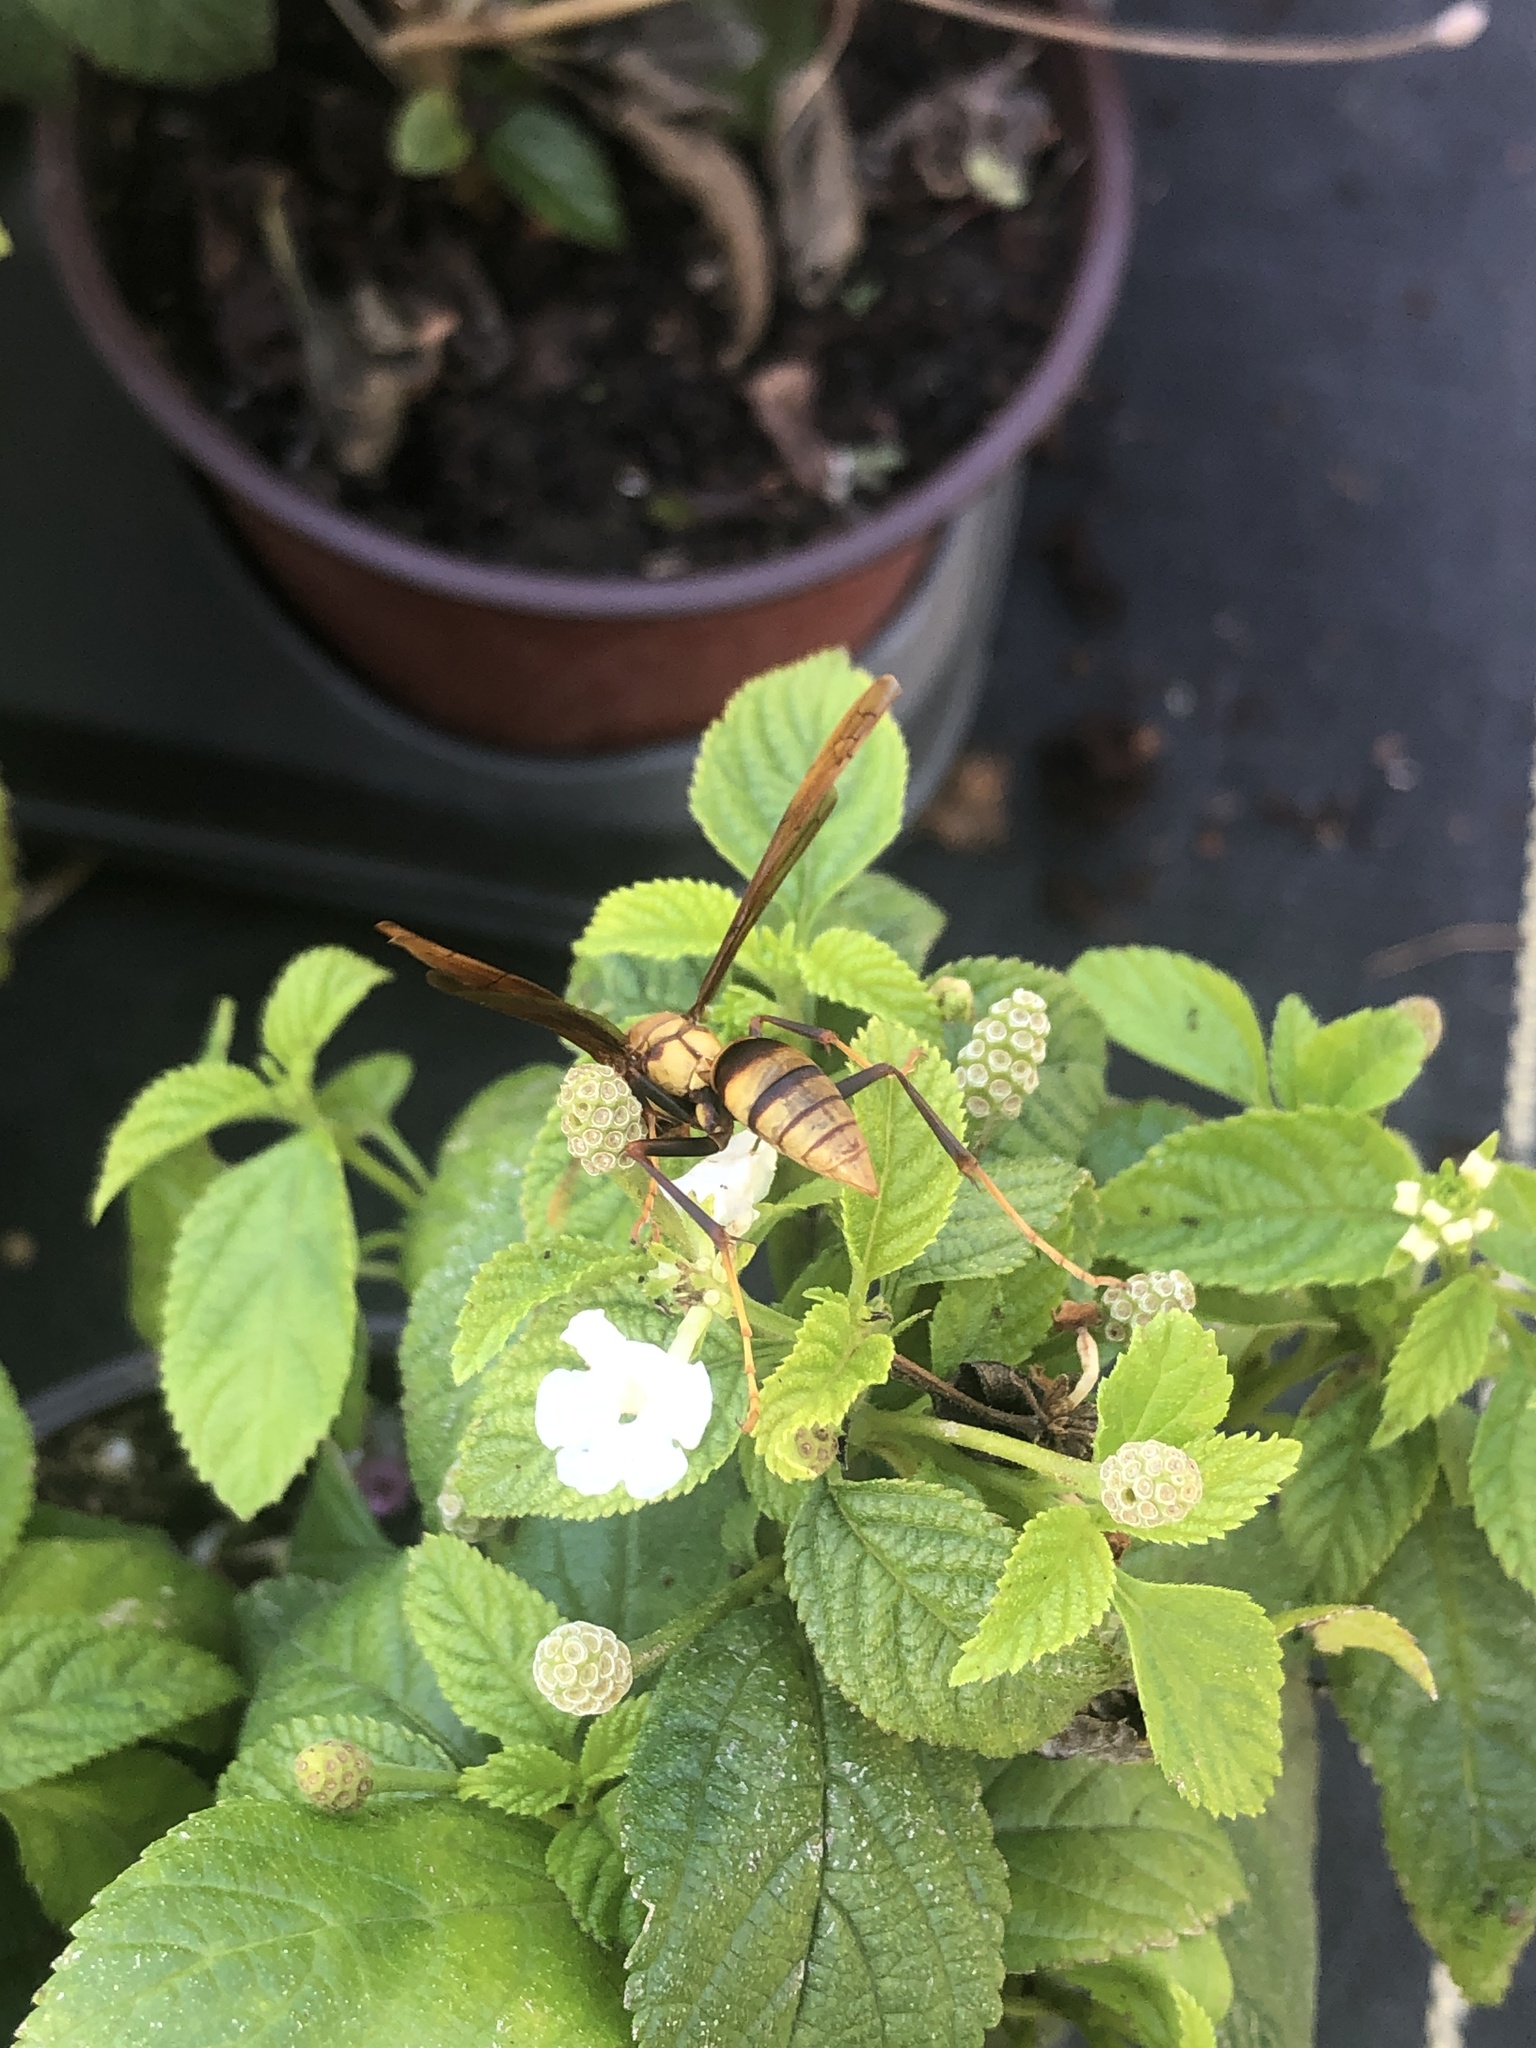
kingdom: Animalia
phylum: Arthropoda
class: Insecta
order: Hymenoptera
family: Eumenidae
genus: Polistes
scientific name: Polistes major
